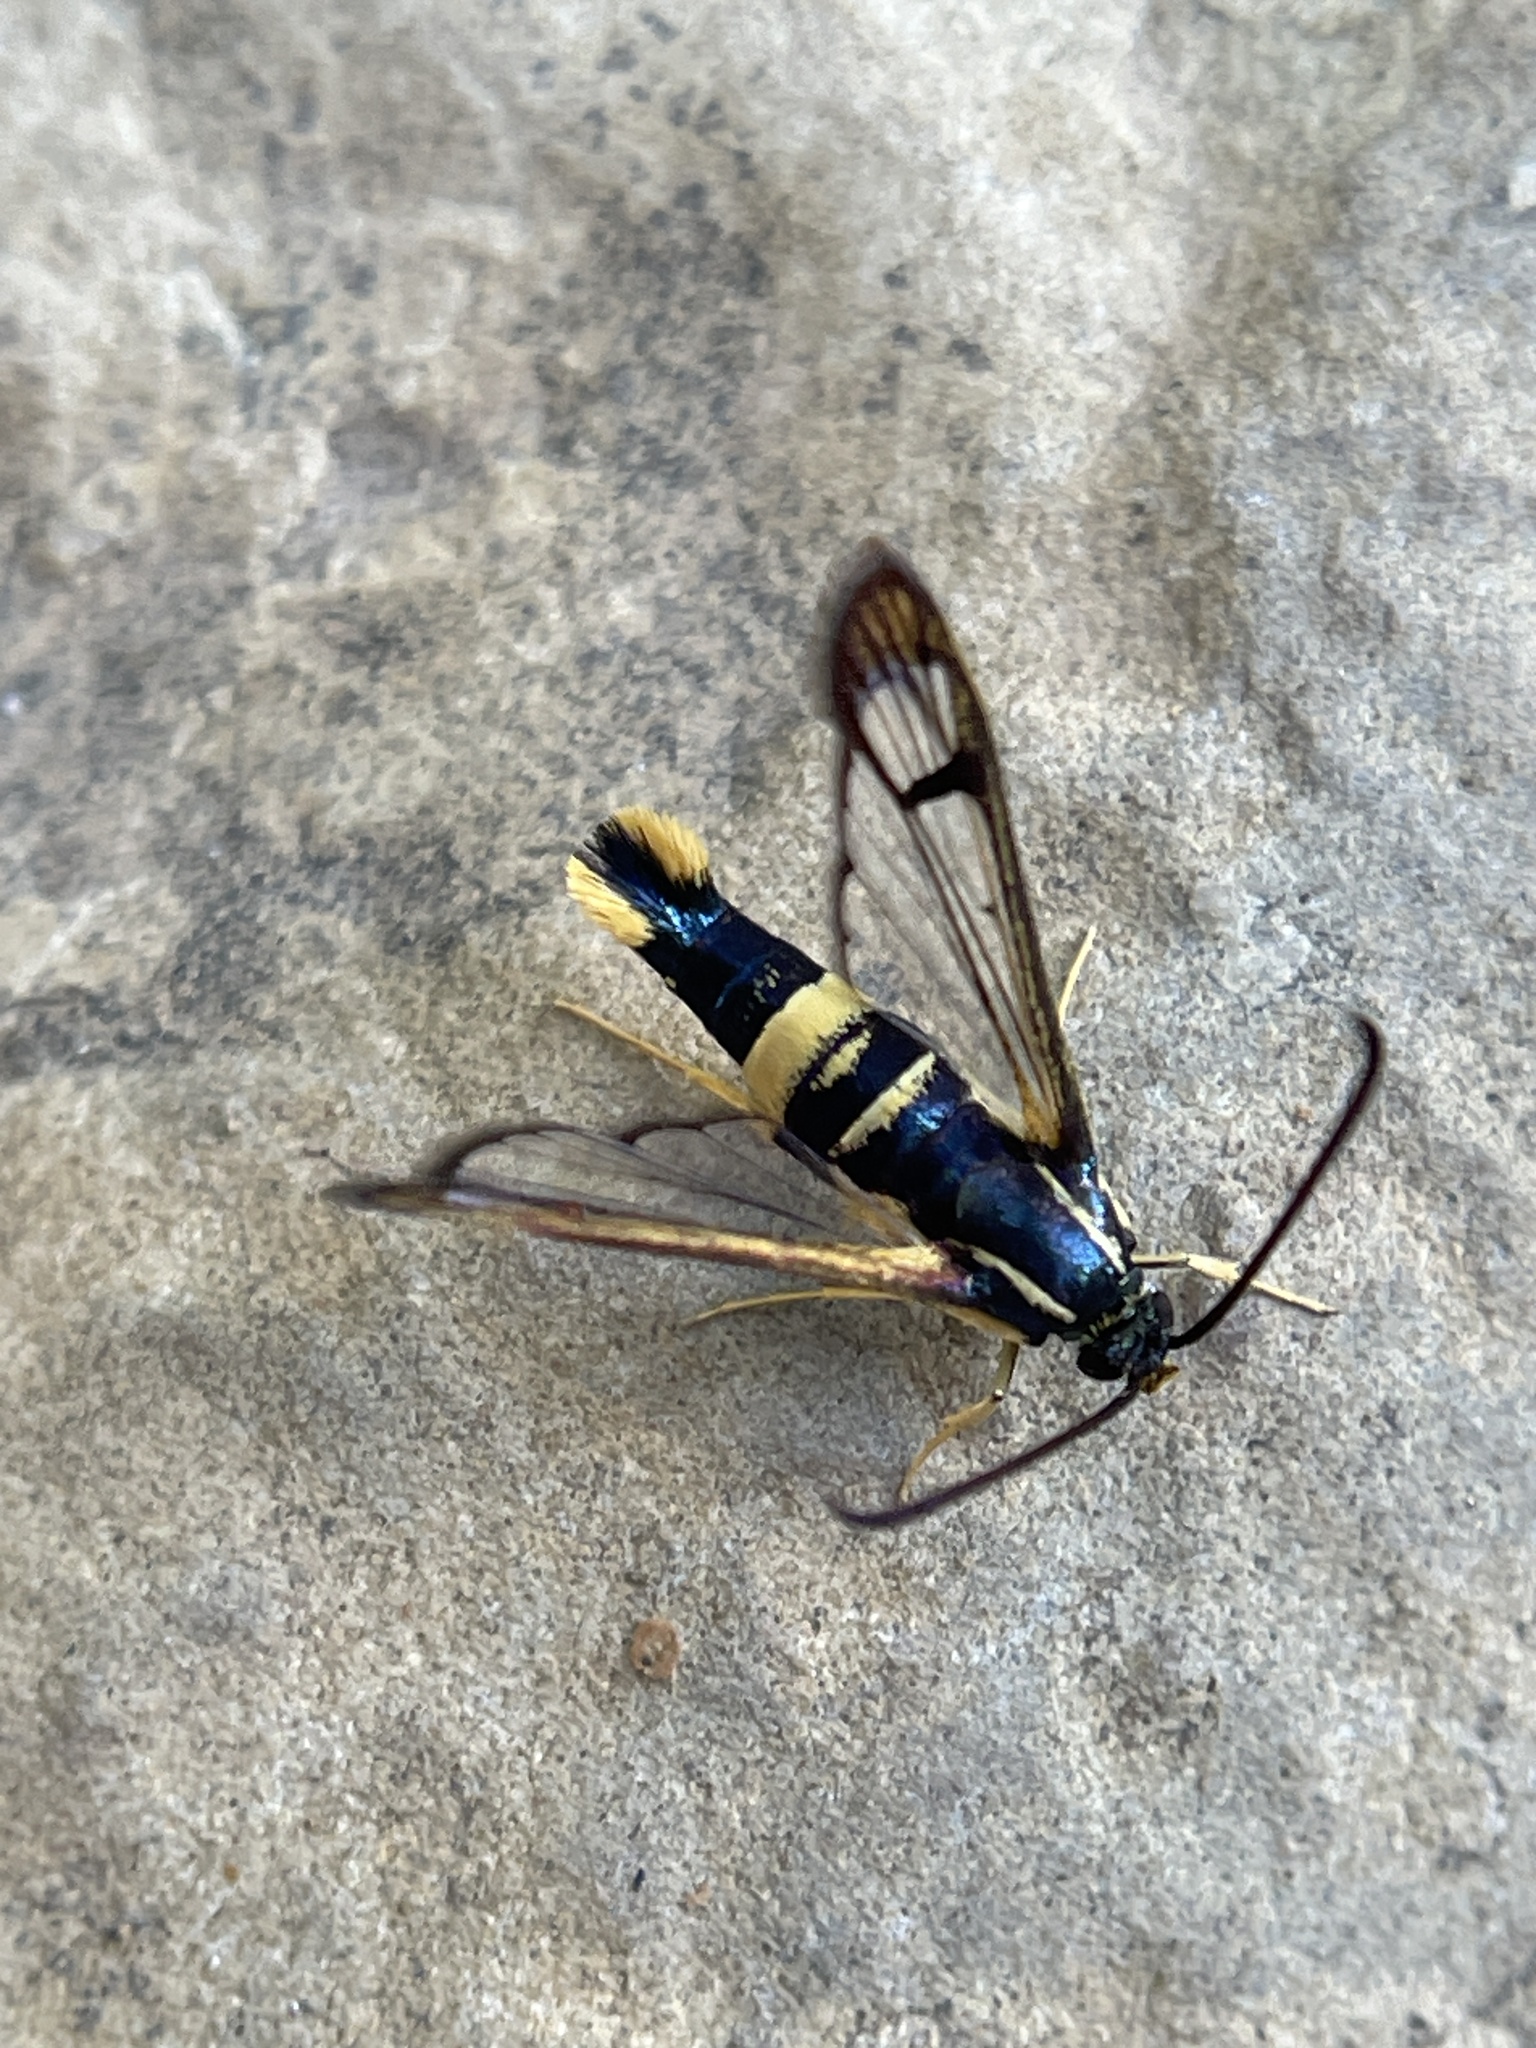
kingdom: Animalia
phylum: Arthropoda
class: Insecta
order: Lepidoptera
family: Sesiidae
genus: Synanthedon
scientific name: Synanthedon scitula
